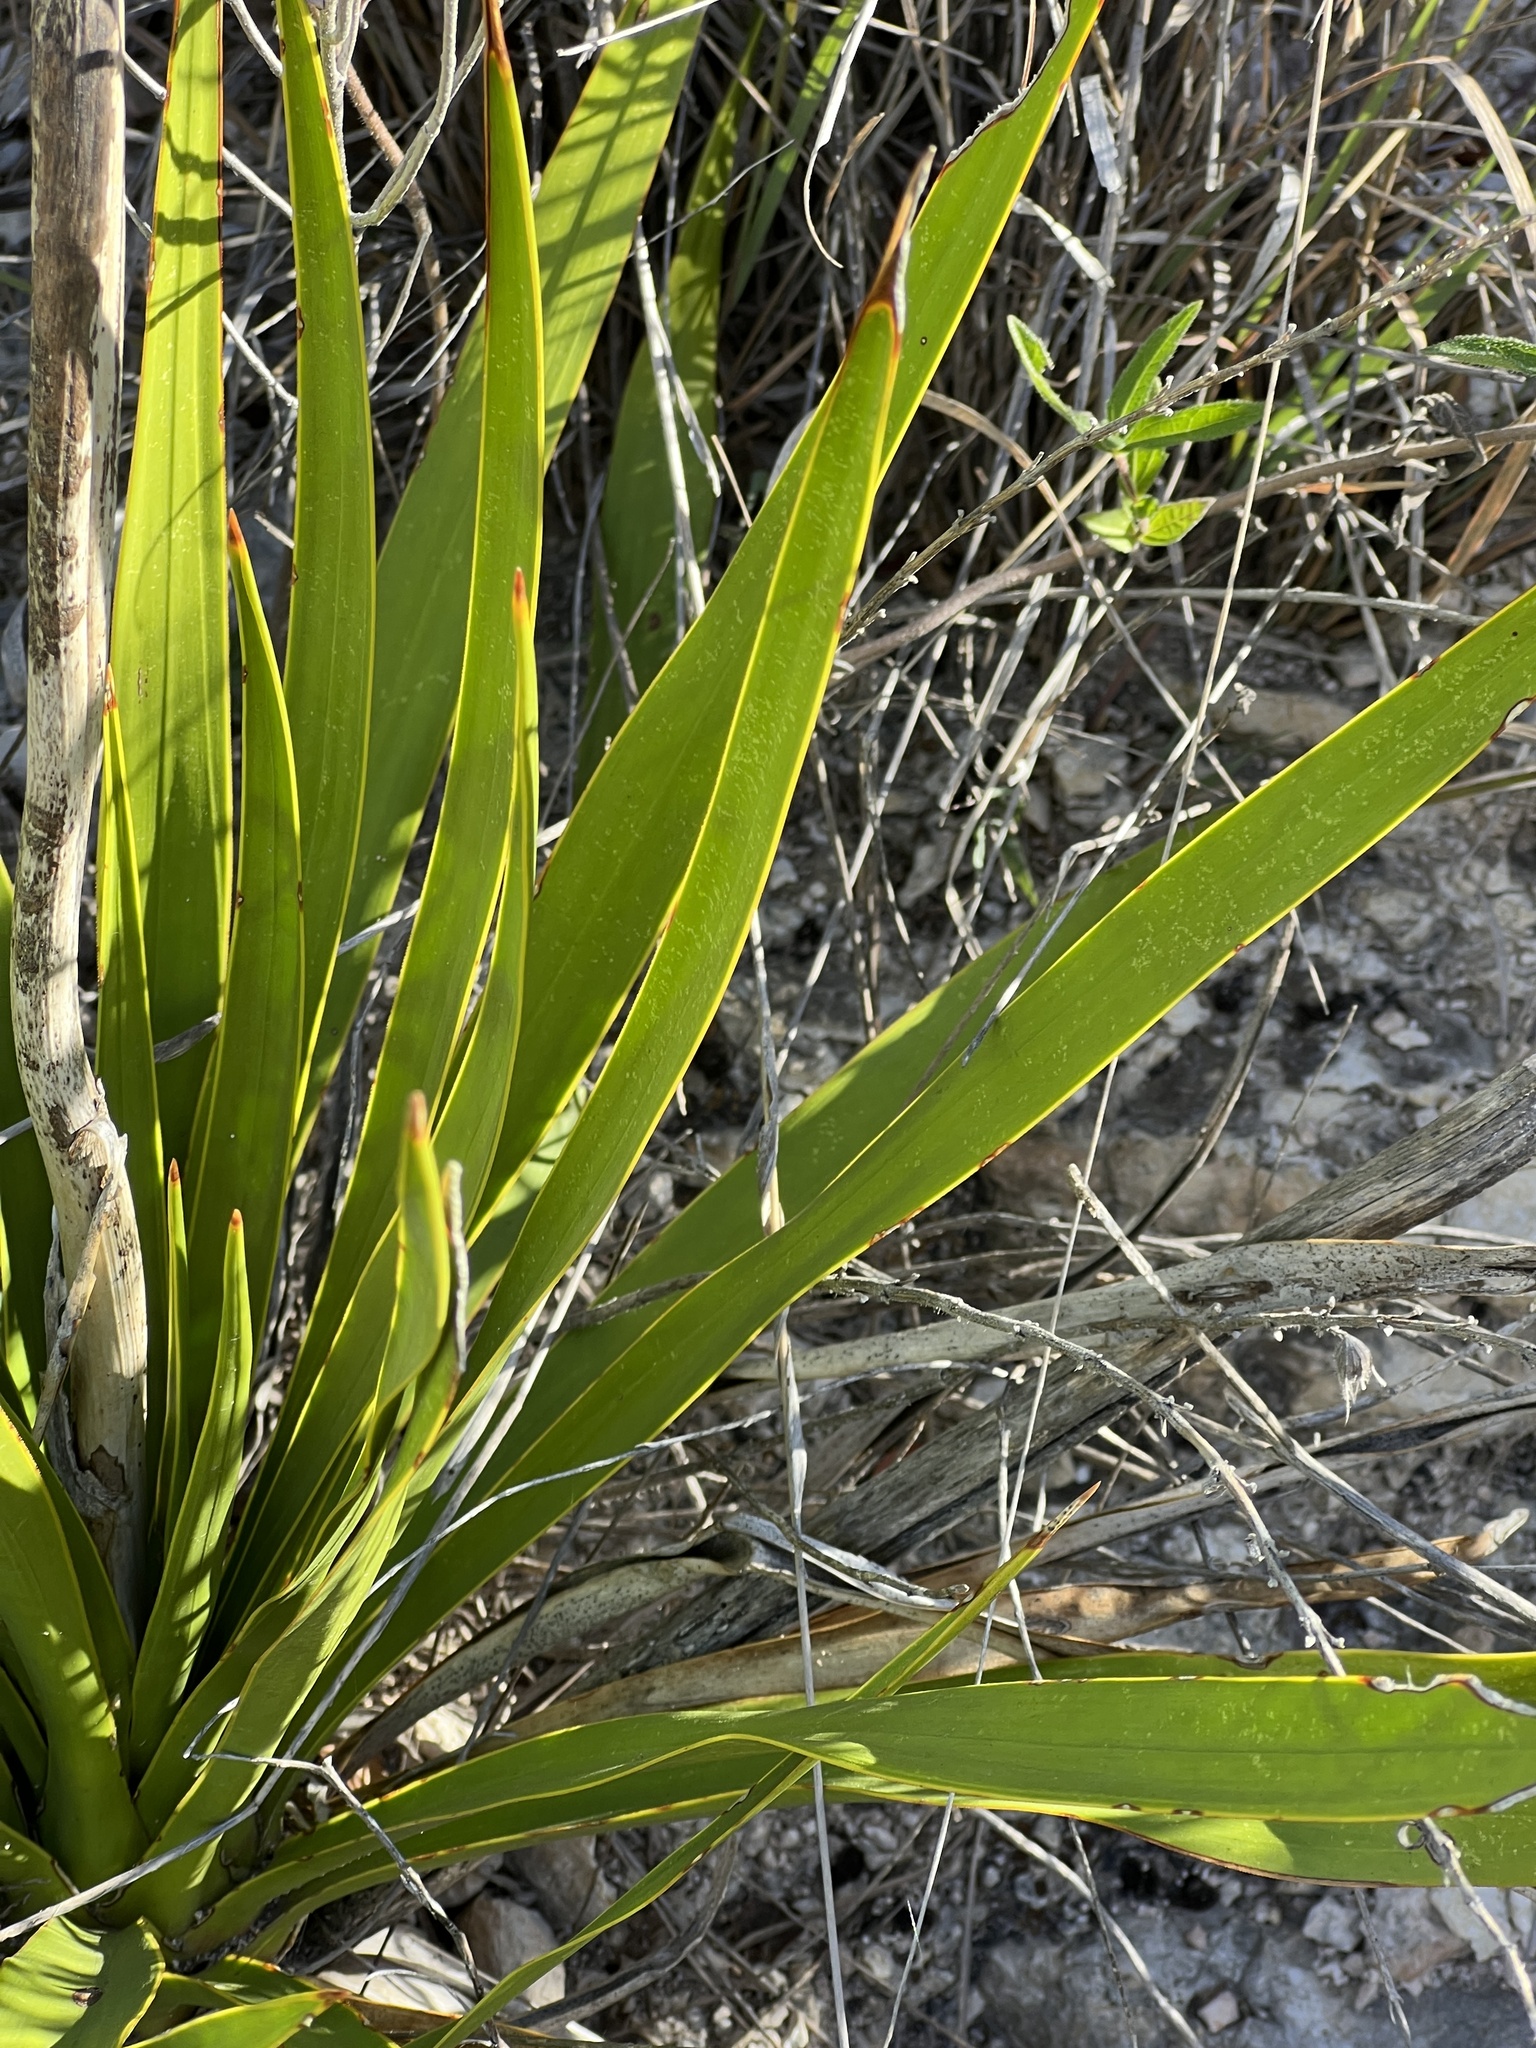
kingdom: Plantae
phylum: Tracheophyta
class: Liliopsida
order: Asparagales
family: Asparagaceae
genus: Yucca
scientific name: Yucca rupicola
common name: Twisted-leaf spanish-dagger
